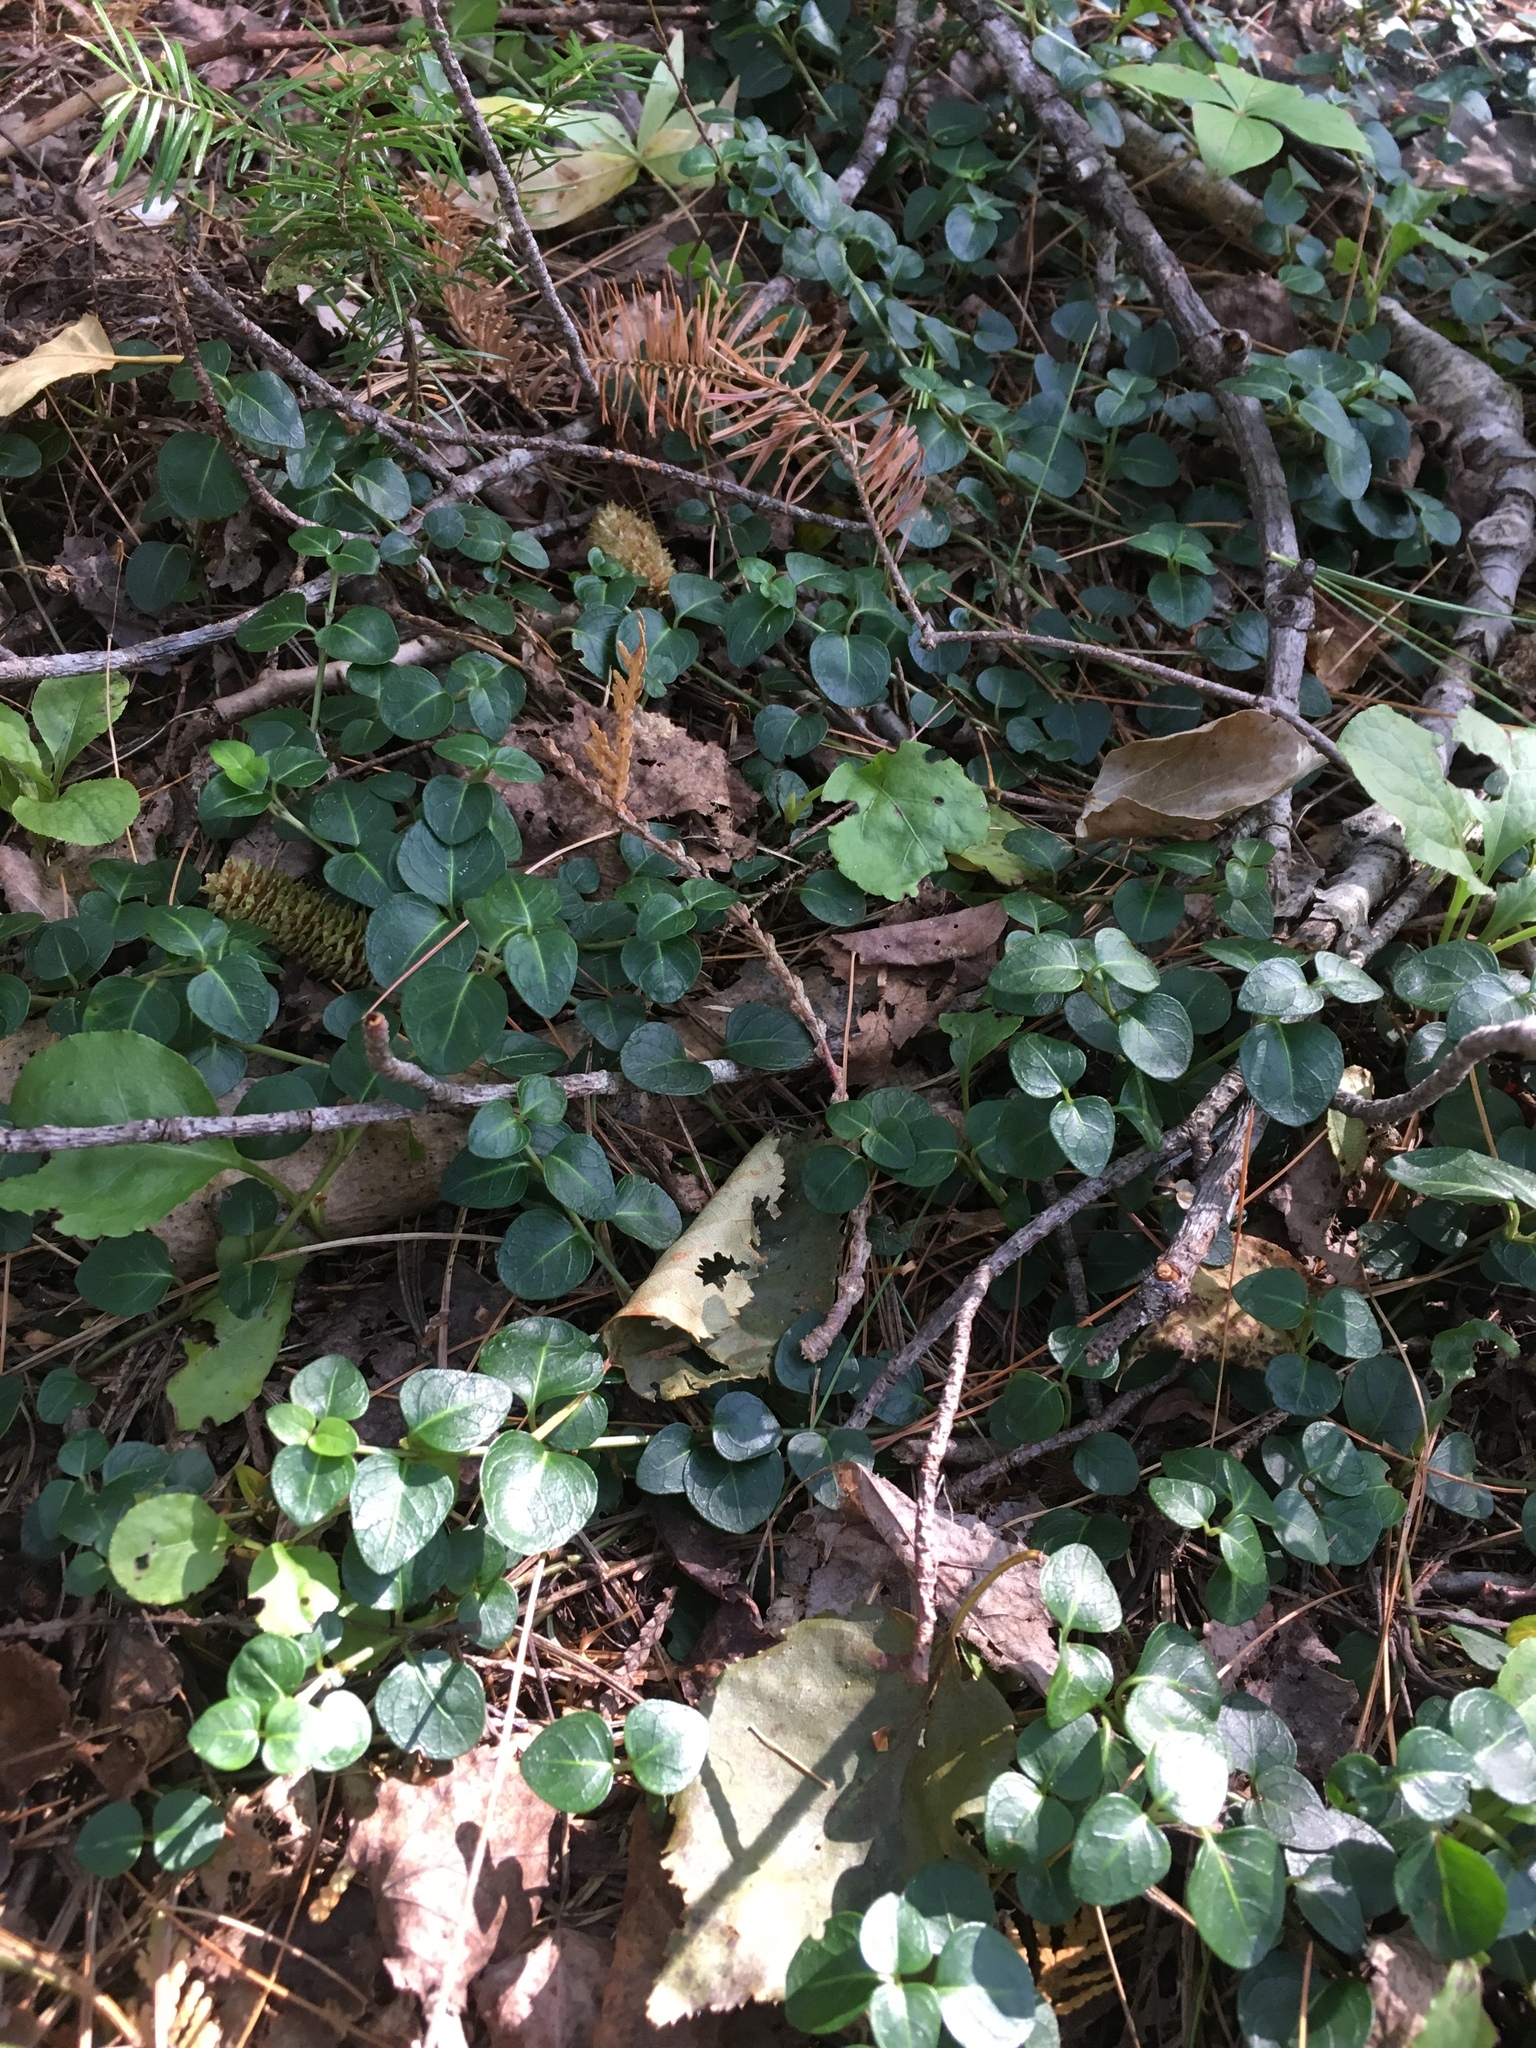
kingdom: Plantae
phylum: Tracheophyta
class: Magnoliopsida
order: Gentianales
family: Rubiaceae
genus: Mitchella
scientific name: Mitchella repens
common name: Partridge-berry
